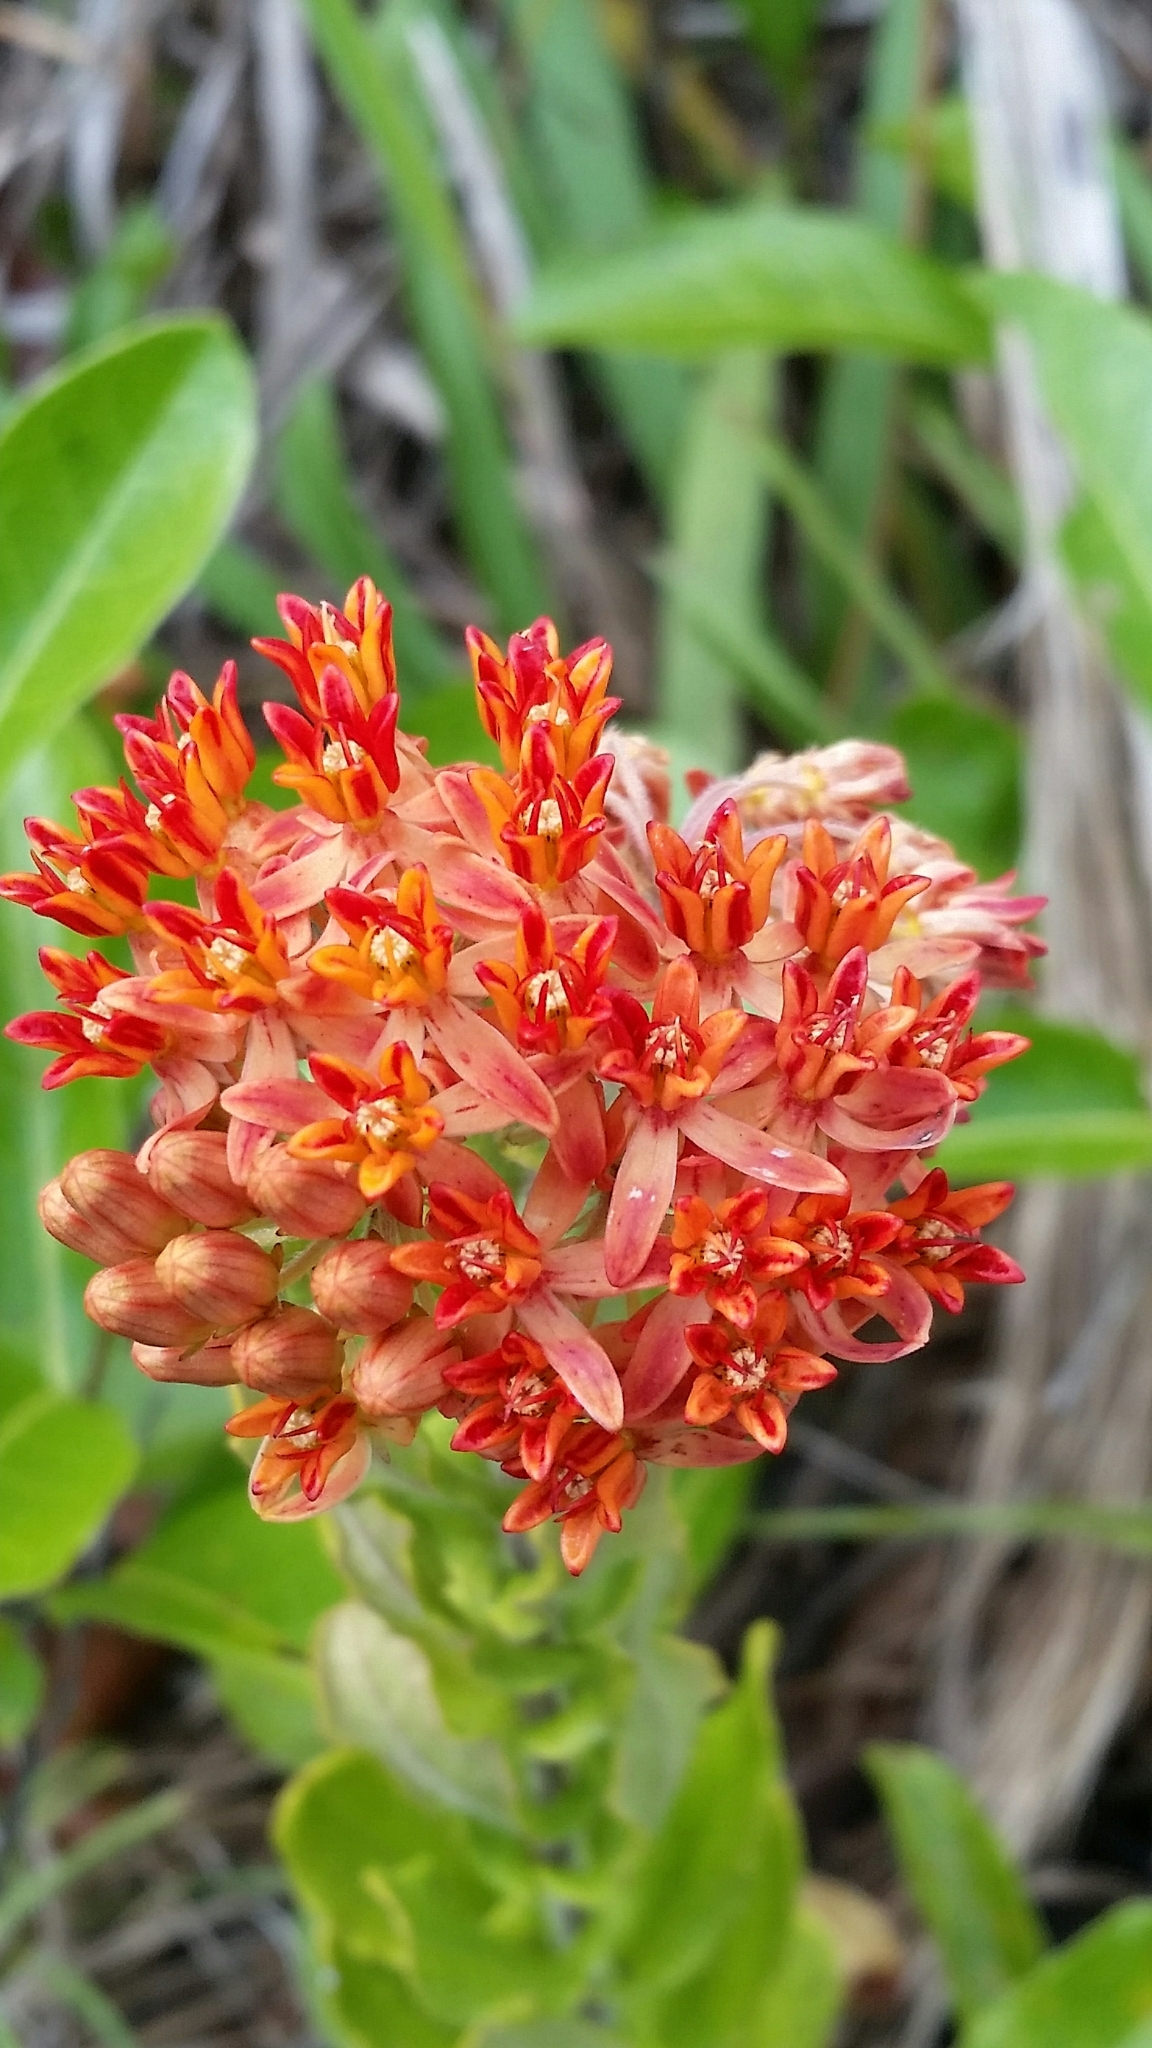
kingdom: Plantae
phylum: Tracheophyta
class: Magnoliopsida
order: Gentianales
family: Apocynaceae
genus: Asclepias
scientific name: Asclepias tuberosa
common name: Butterfly milkweed
